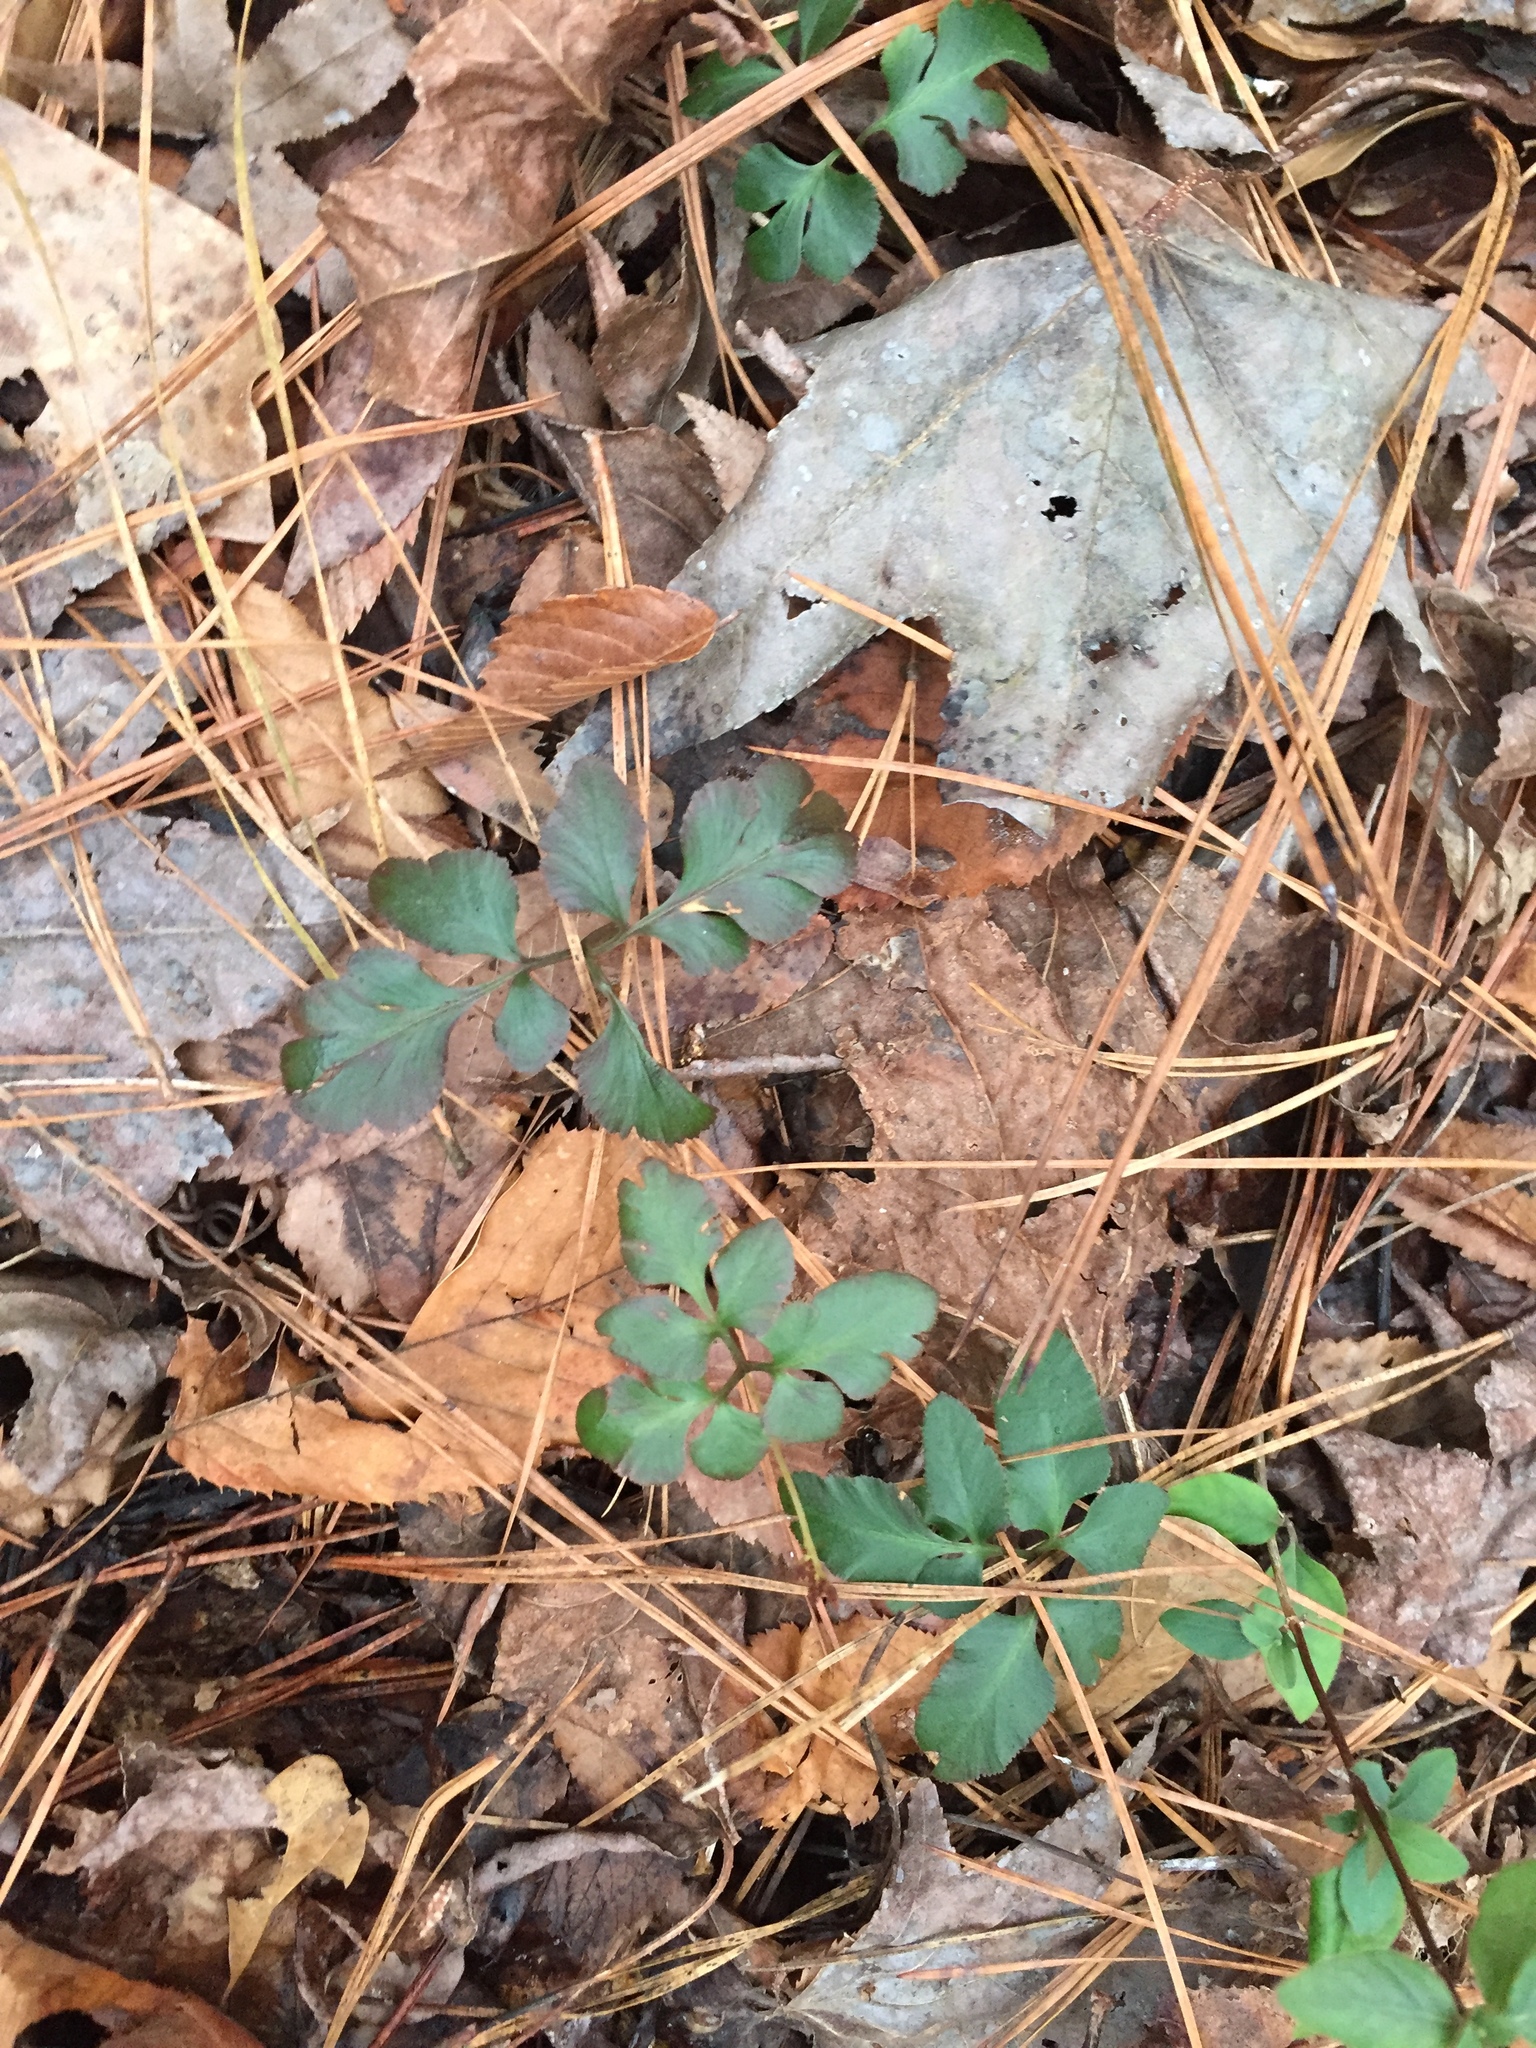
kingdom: Plantae
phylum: Tracheophyta
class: Polypodiopsida
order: Ophioglossales
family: Ophioglossaceae
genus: Sceptridium
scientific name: Sceptridium biternatum
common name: Sparse-lobed grapefern
